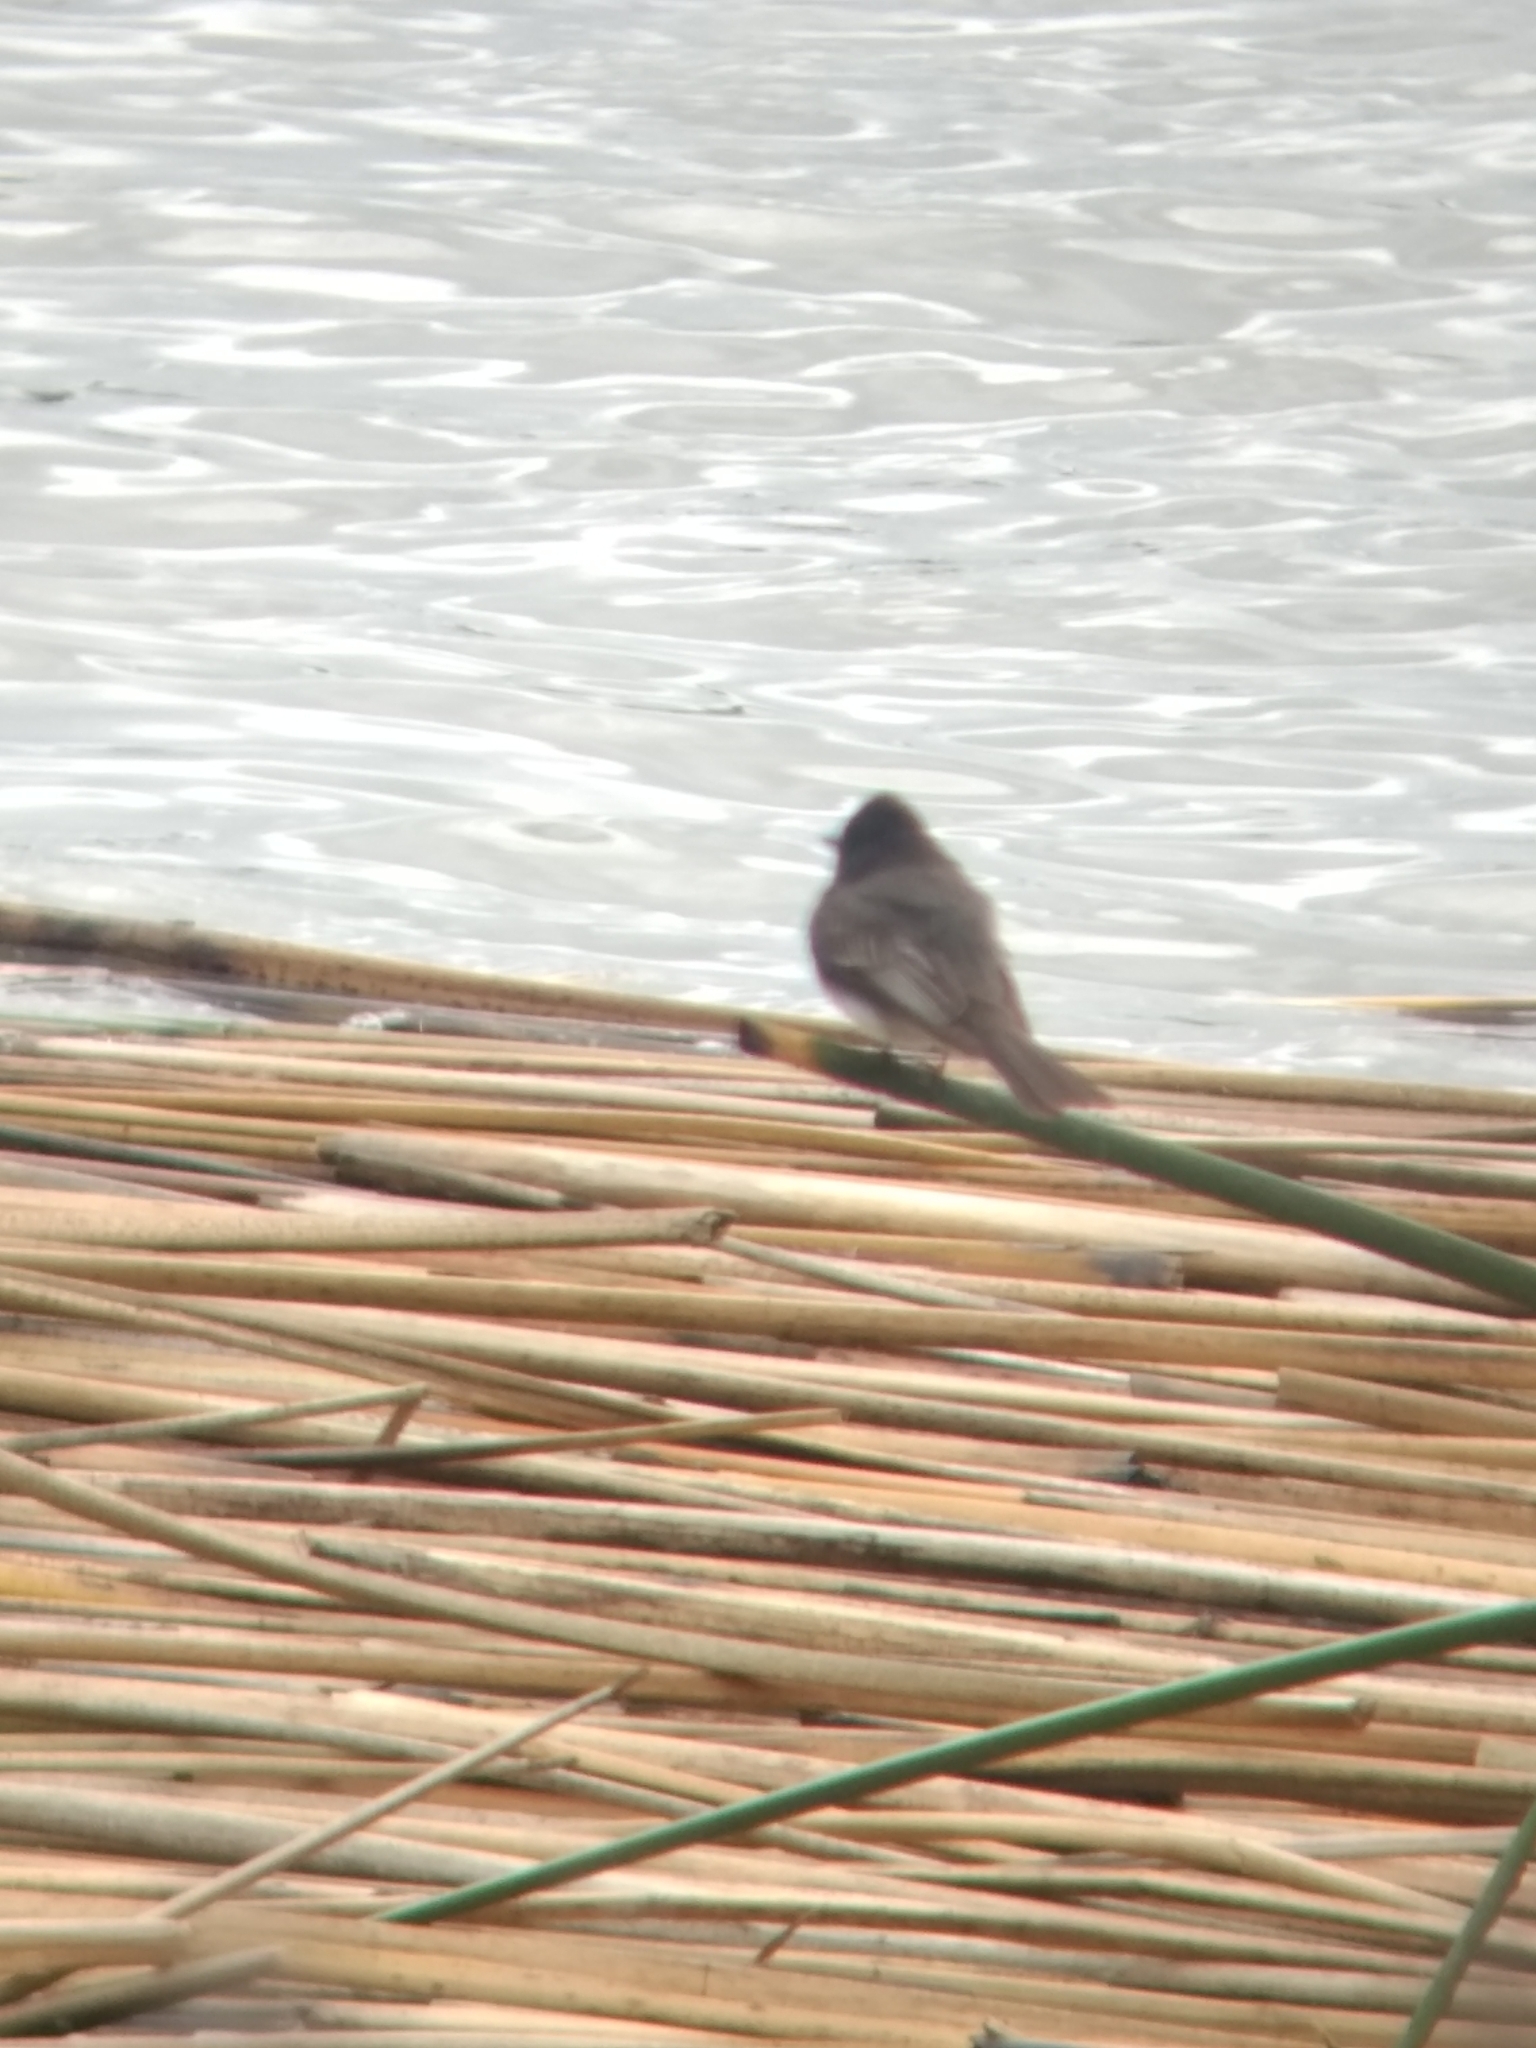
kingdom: Animalia
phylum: Chordata
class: Aves
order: Passeriformes
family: Tyrannidae
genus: Sayornis
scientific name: Sayornis nigricans
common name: Black phoebe
